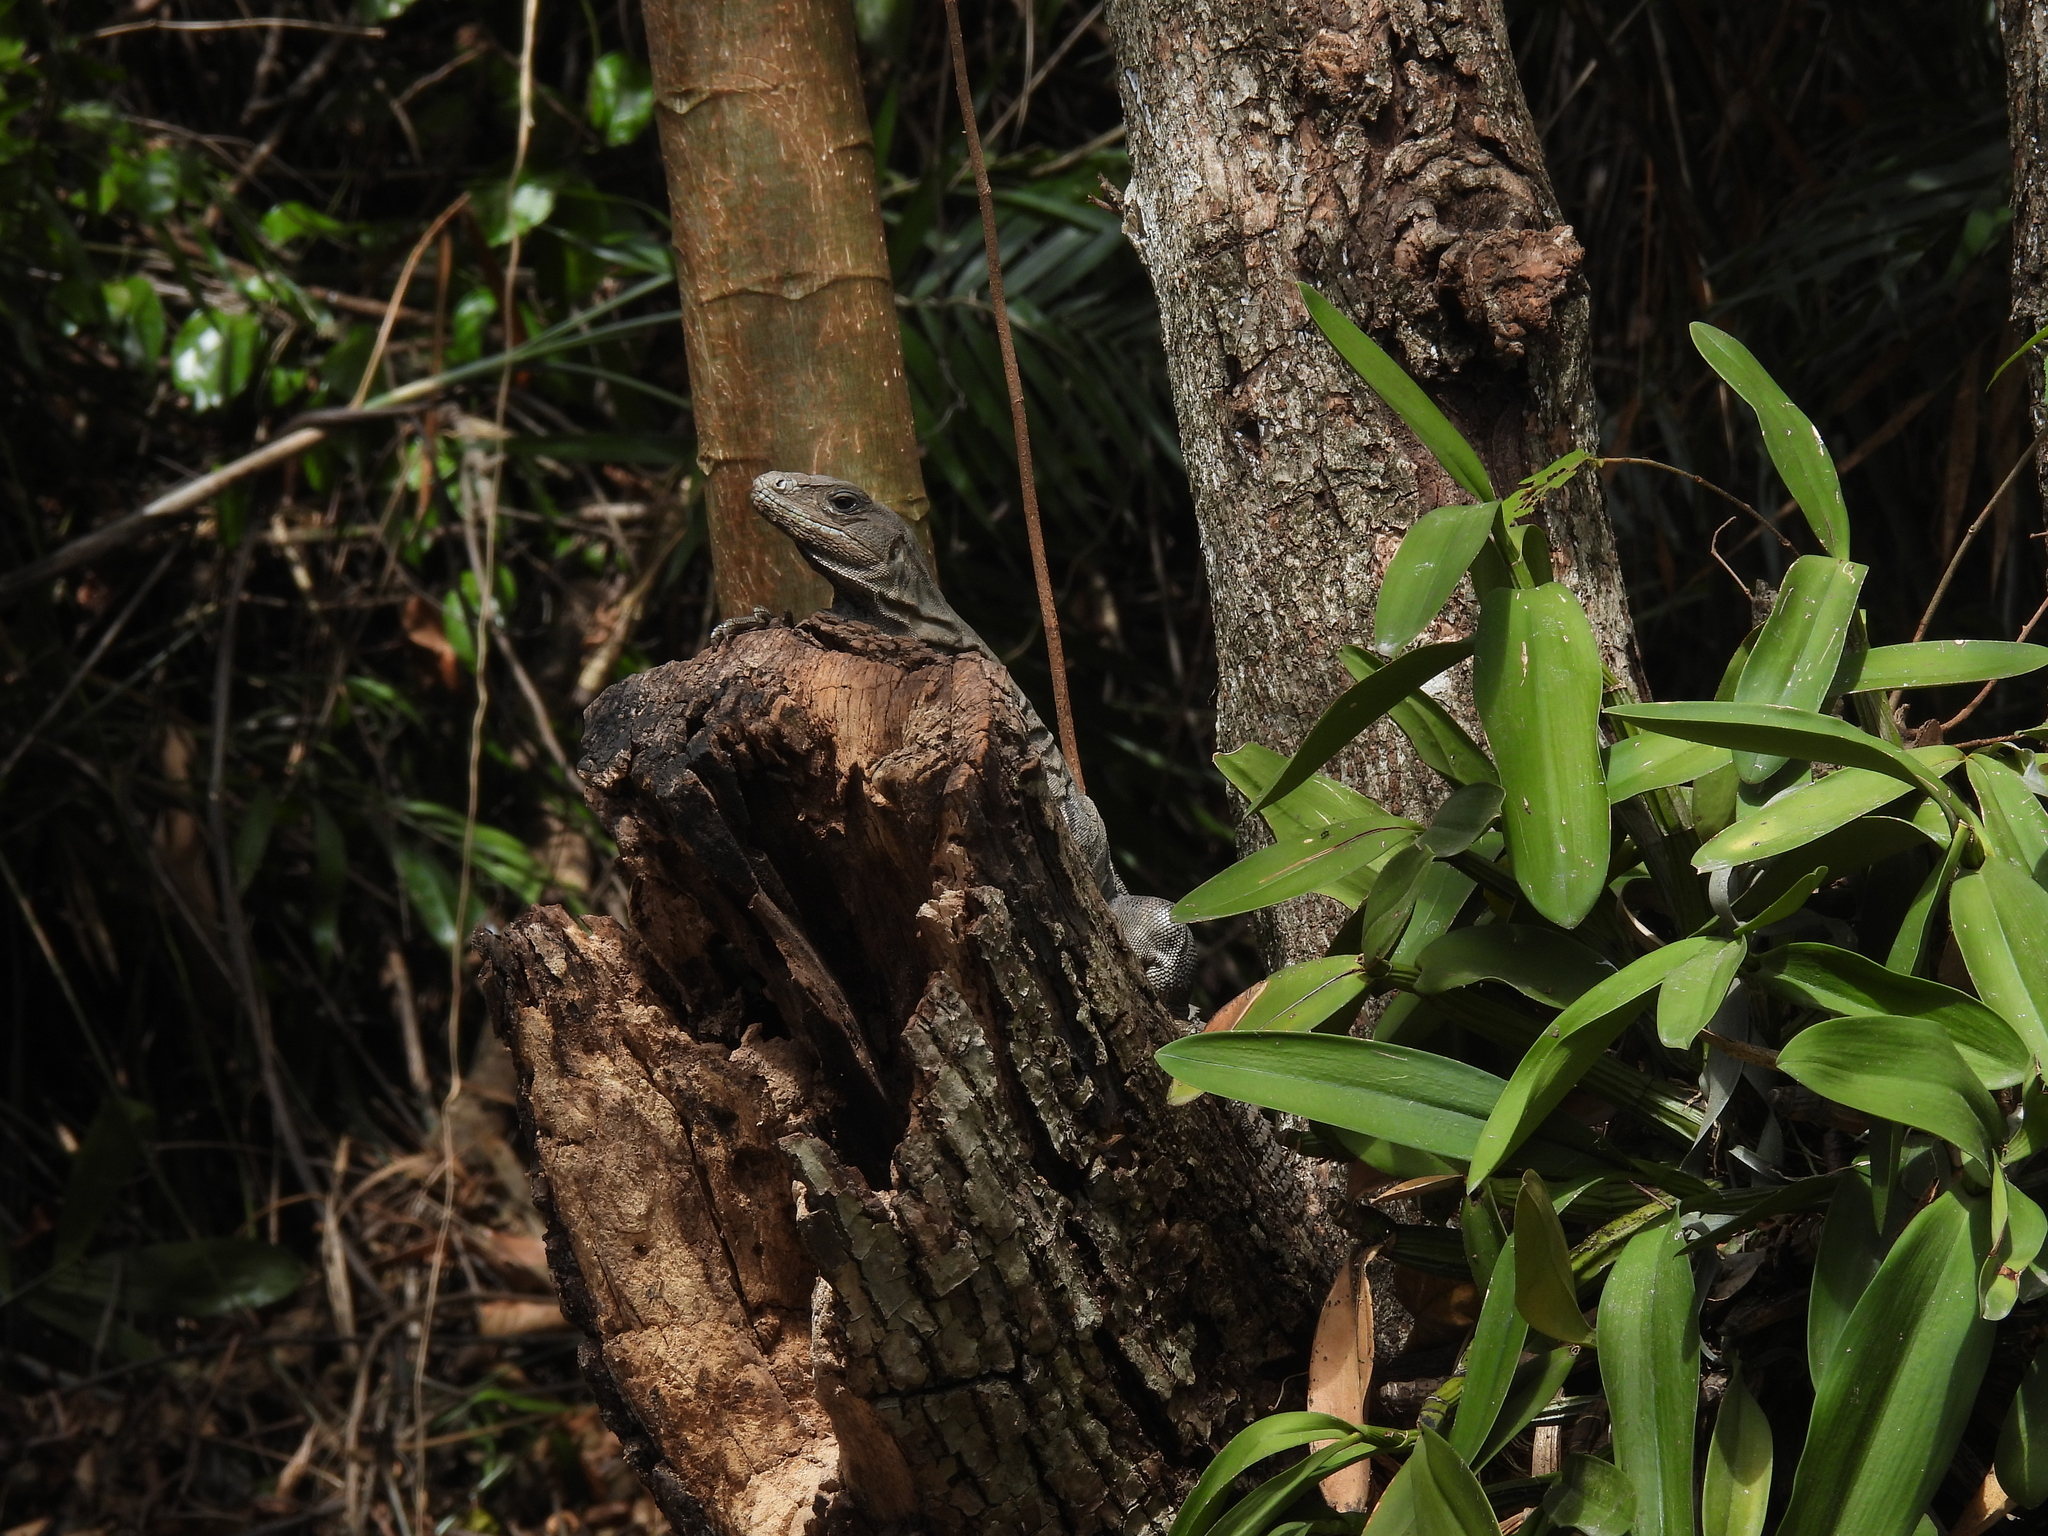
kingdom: Animalia
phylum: Chordata
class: Squamata
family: Iguanidae
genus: Ctenosaura
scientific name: Ctenosaura similis
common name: Black spiny-tailed iguana
